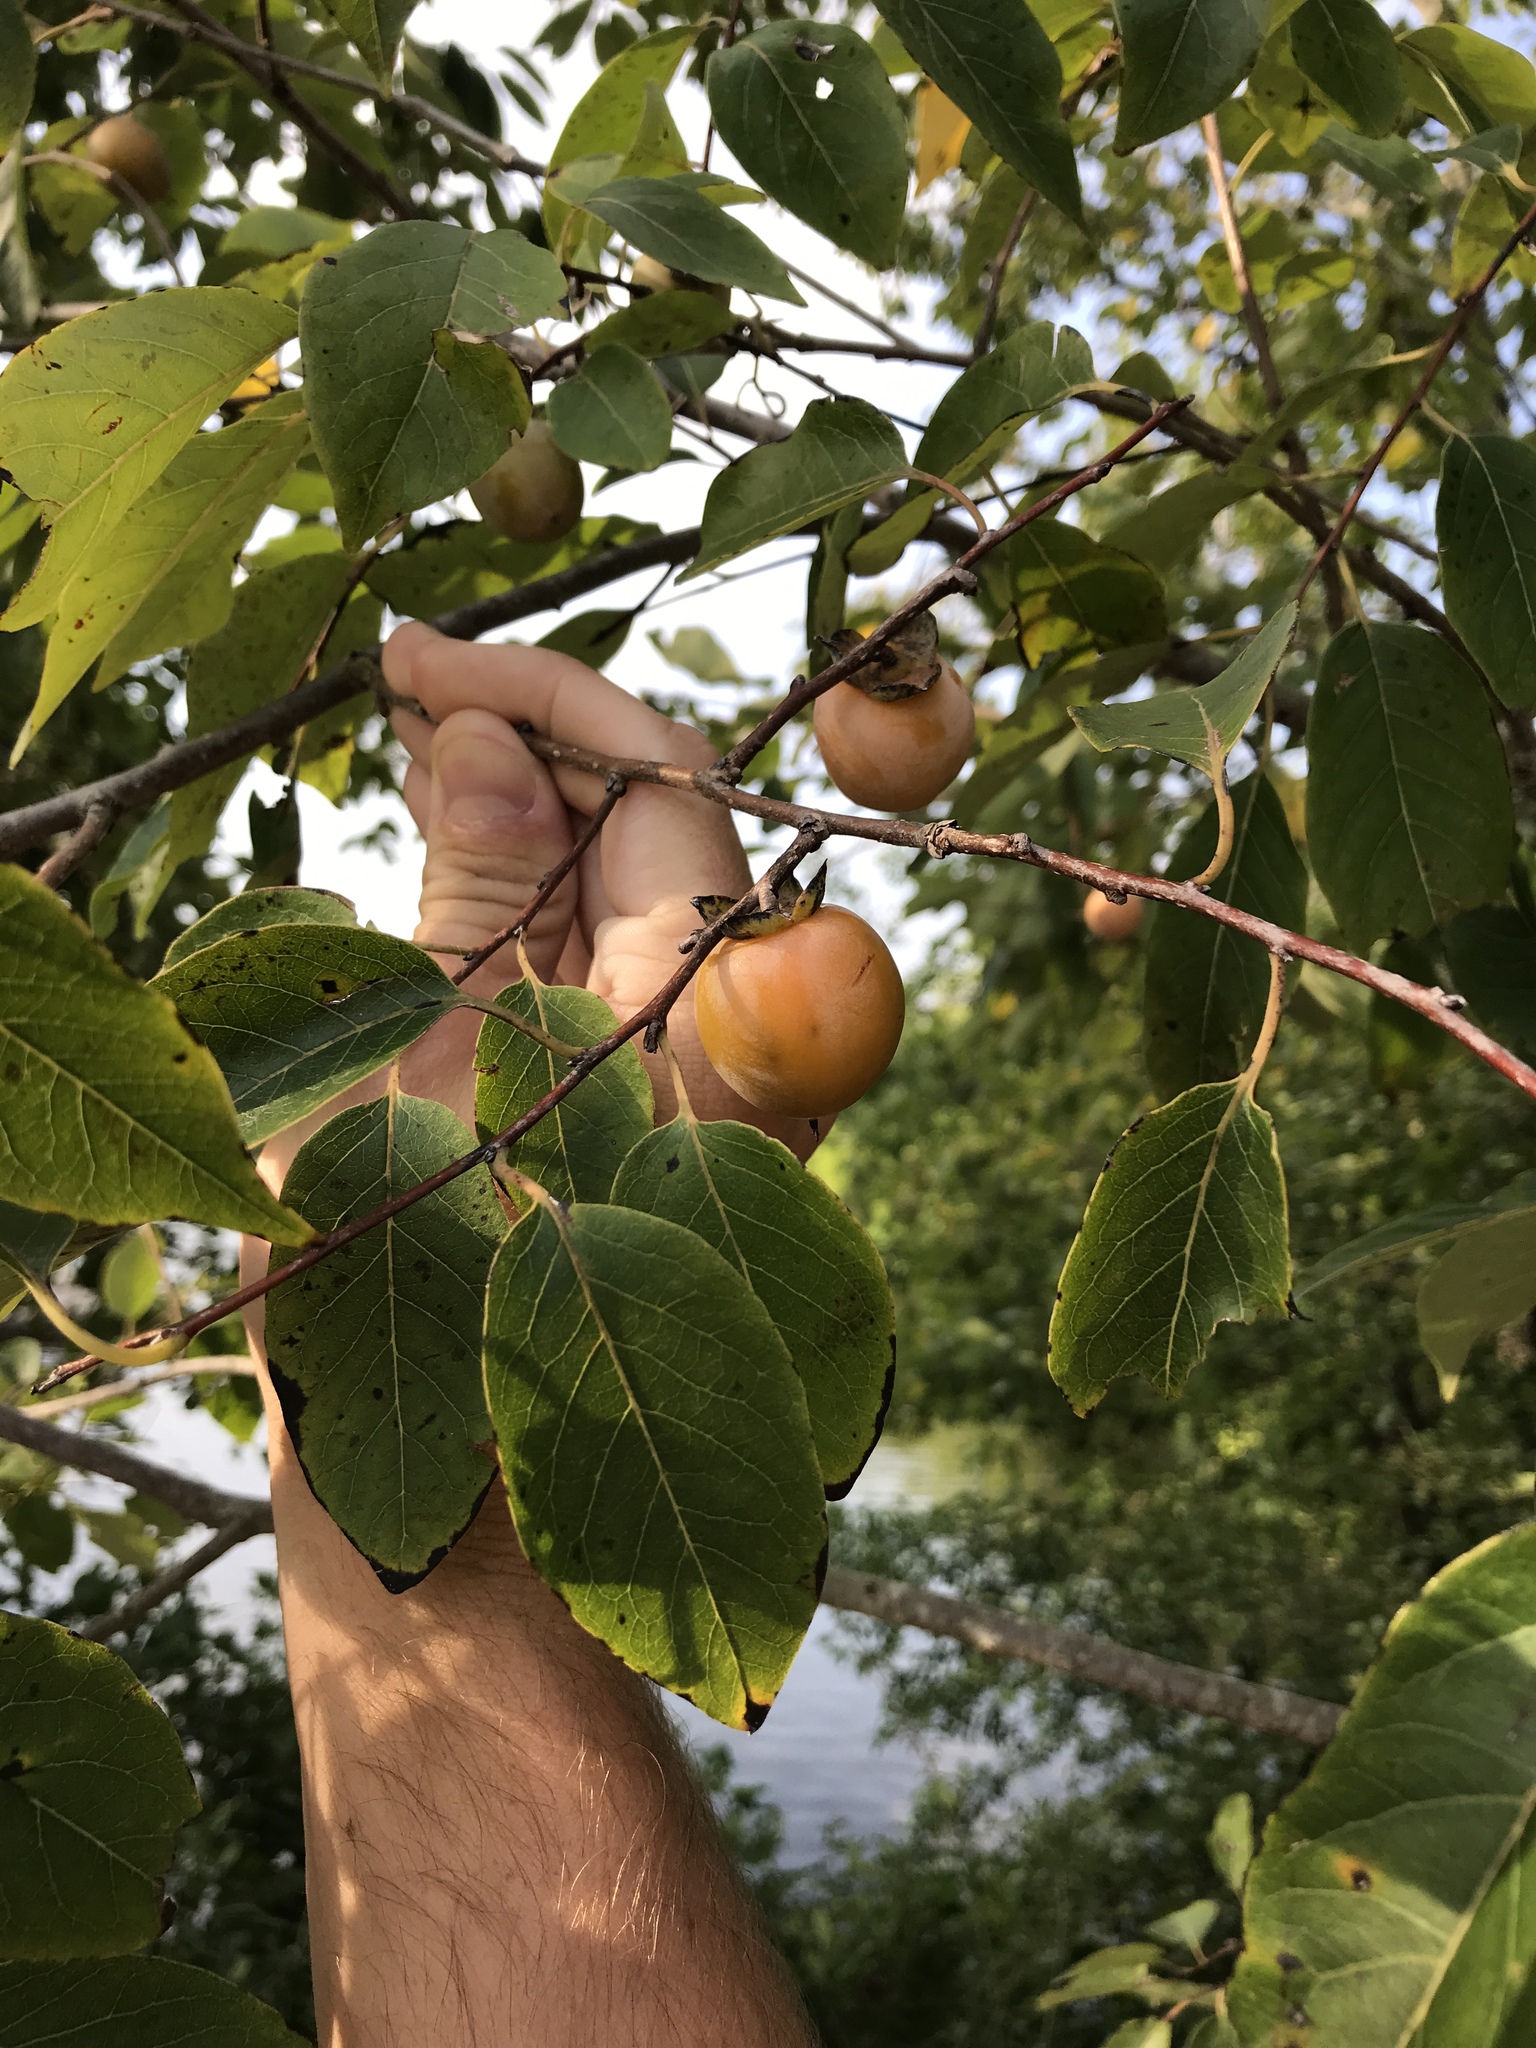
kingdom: Plantae
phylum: Tracheophyta
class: Magnoliopsida
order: Ericales
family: Ebenaceae
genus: Diospyros
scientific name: Diospyros virginiana
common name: Persimmon
